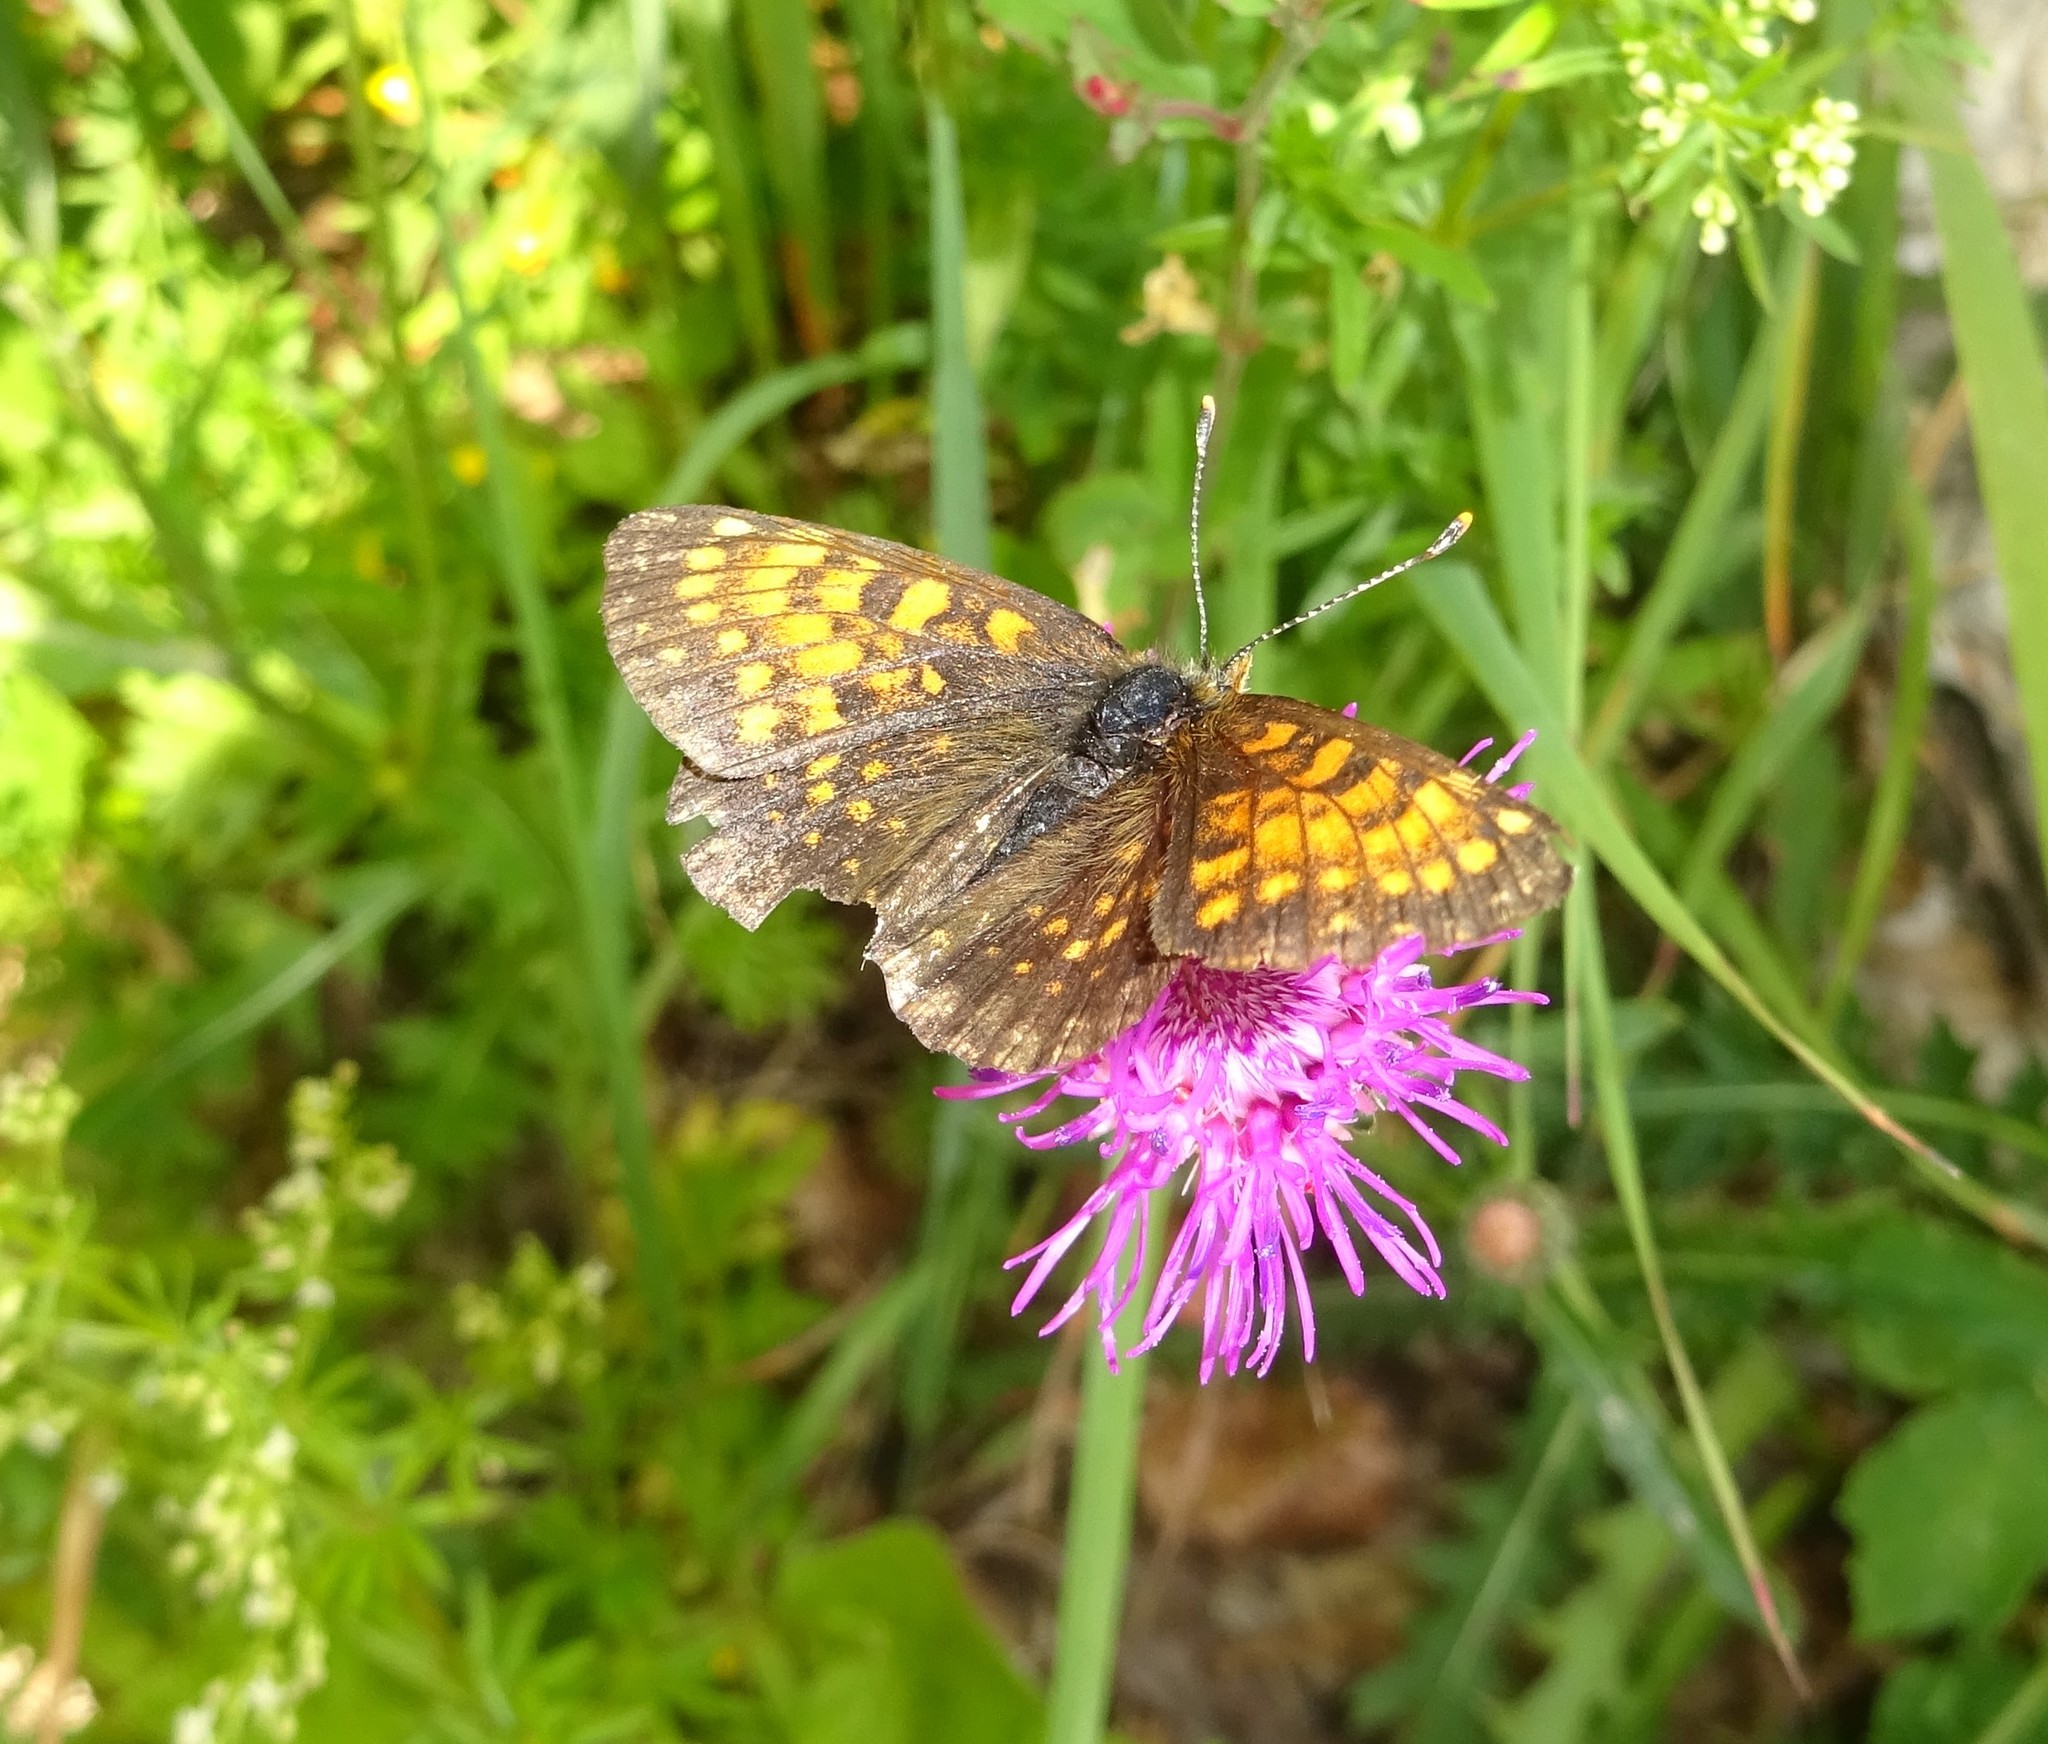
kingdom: Animalia
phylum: Arthropoda
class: Insecta
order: Lepidoptera
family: Nymphalidae
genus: Melitaea
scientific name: Melitaea diamina
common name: False heath fritillary
